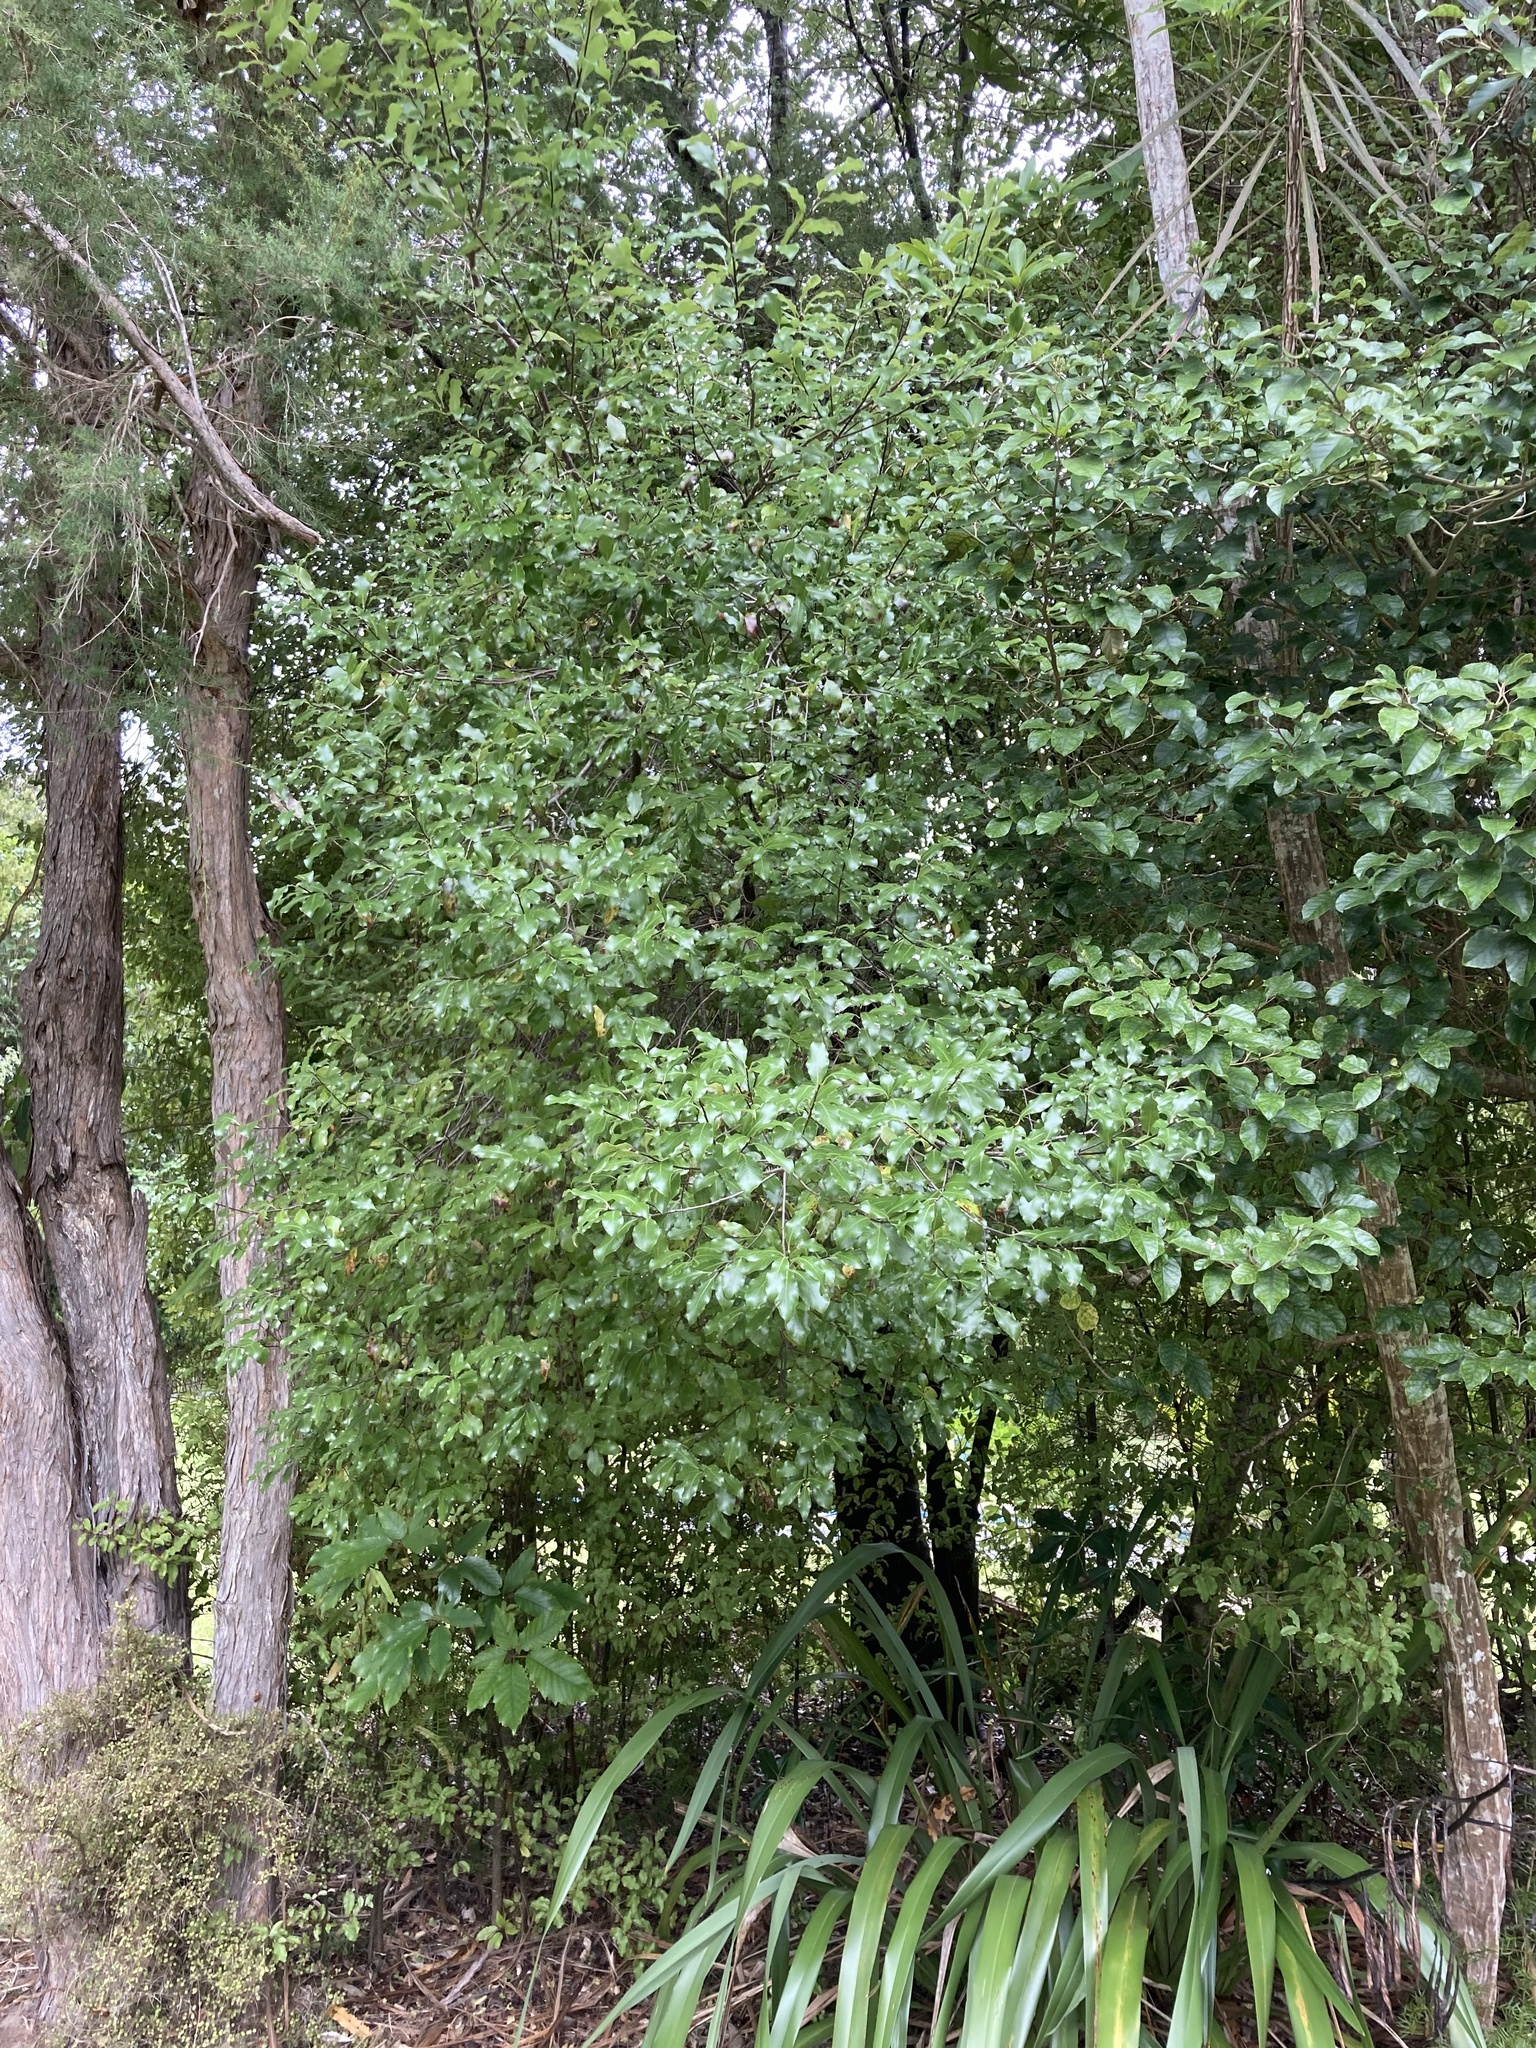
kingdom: Plantae
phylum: Tracheophyta
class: Magnoliopsida
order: Apiales
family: Pittosporaceae
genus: Pittosporum
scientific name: Pittosporum tenuifolium
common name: Kohuhu
